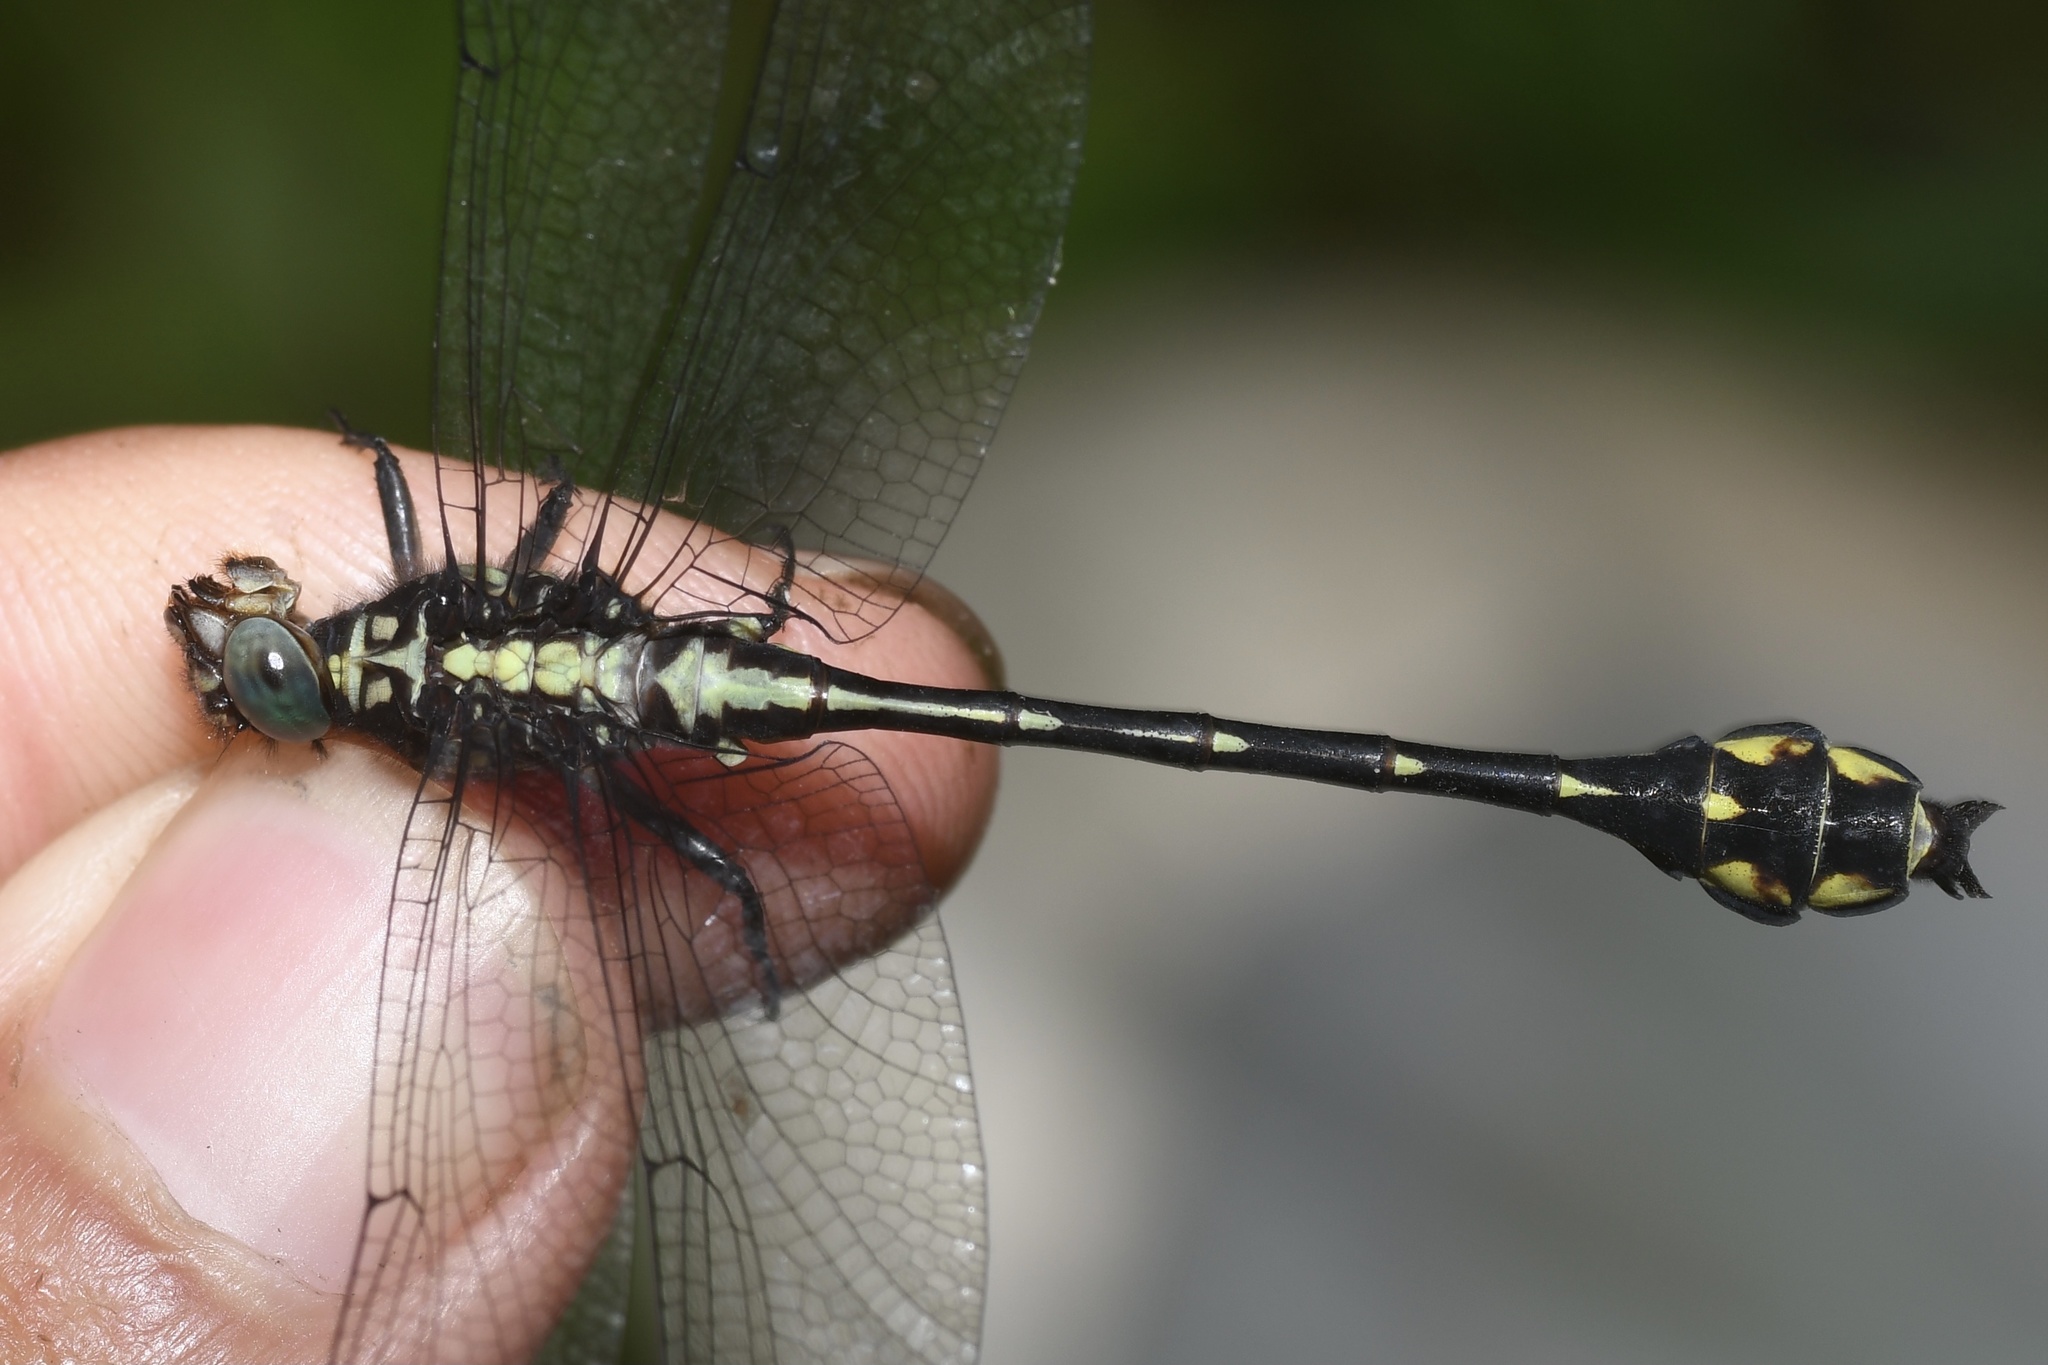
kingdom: Animalia
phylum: Arthropoda
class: Insecta
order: Odonata
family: Gomphidae
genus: Stylurus
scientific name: Stylurus amnicola
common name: Riverine clubtail
